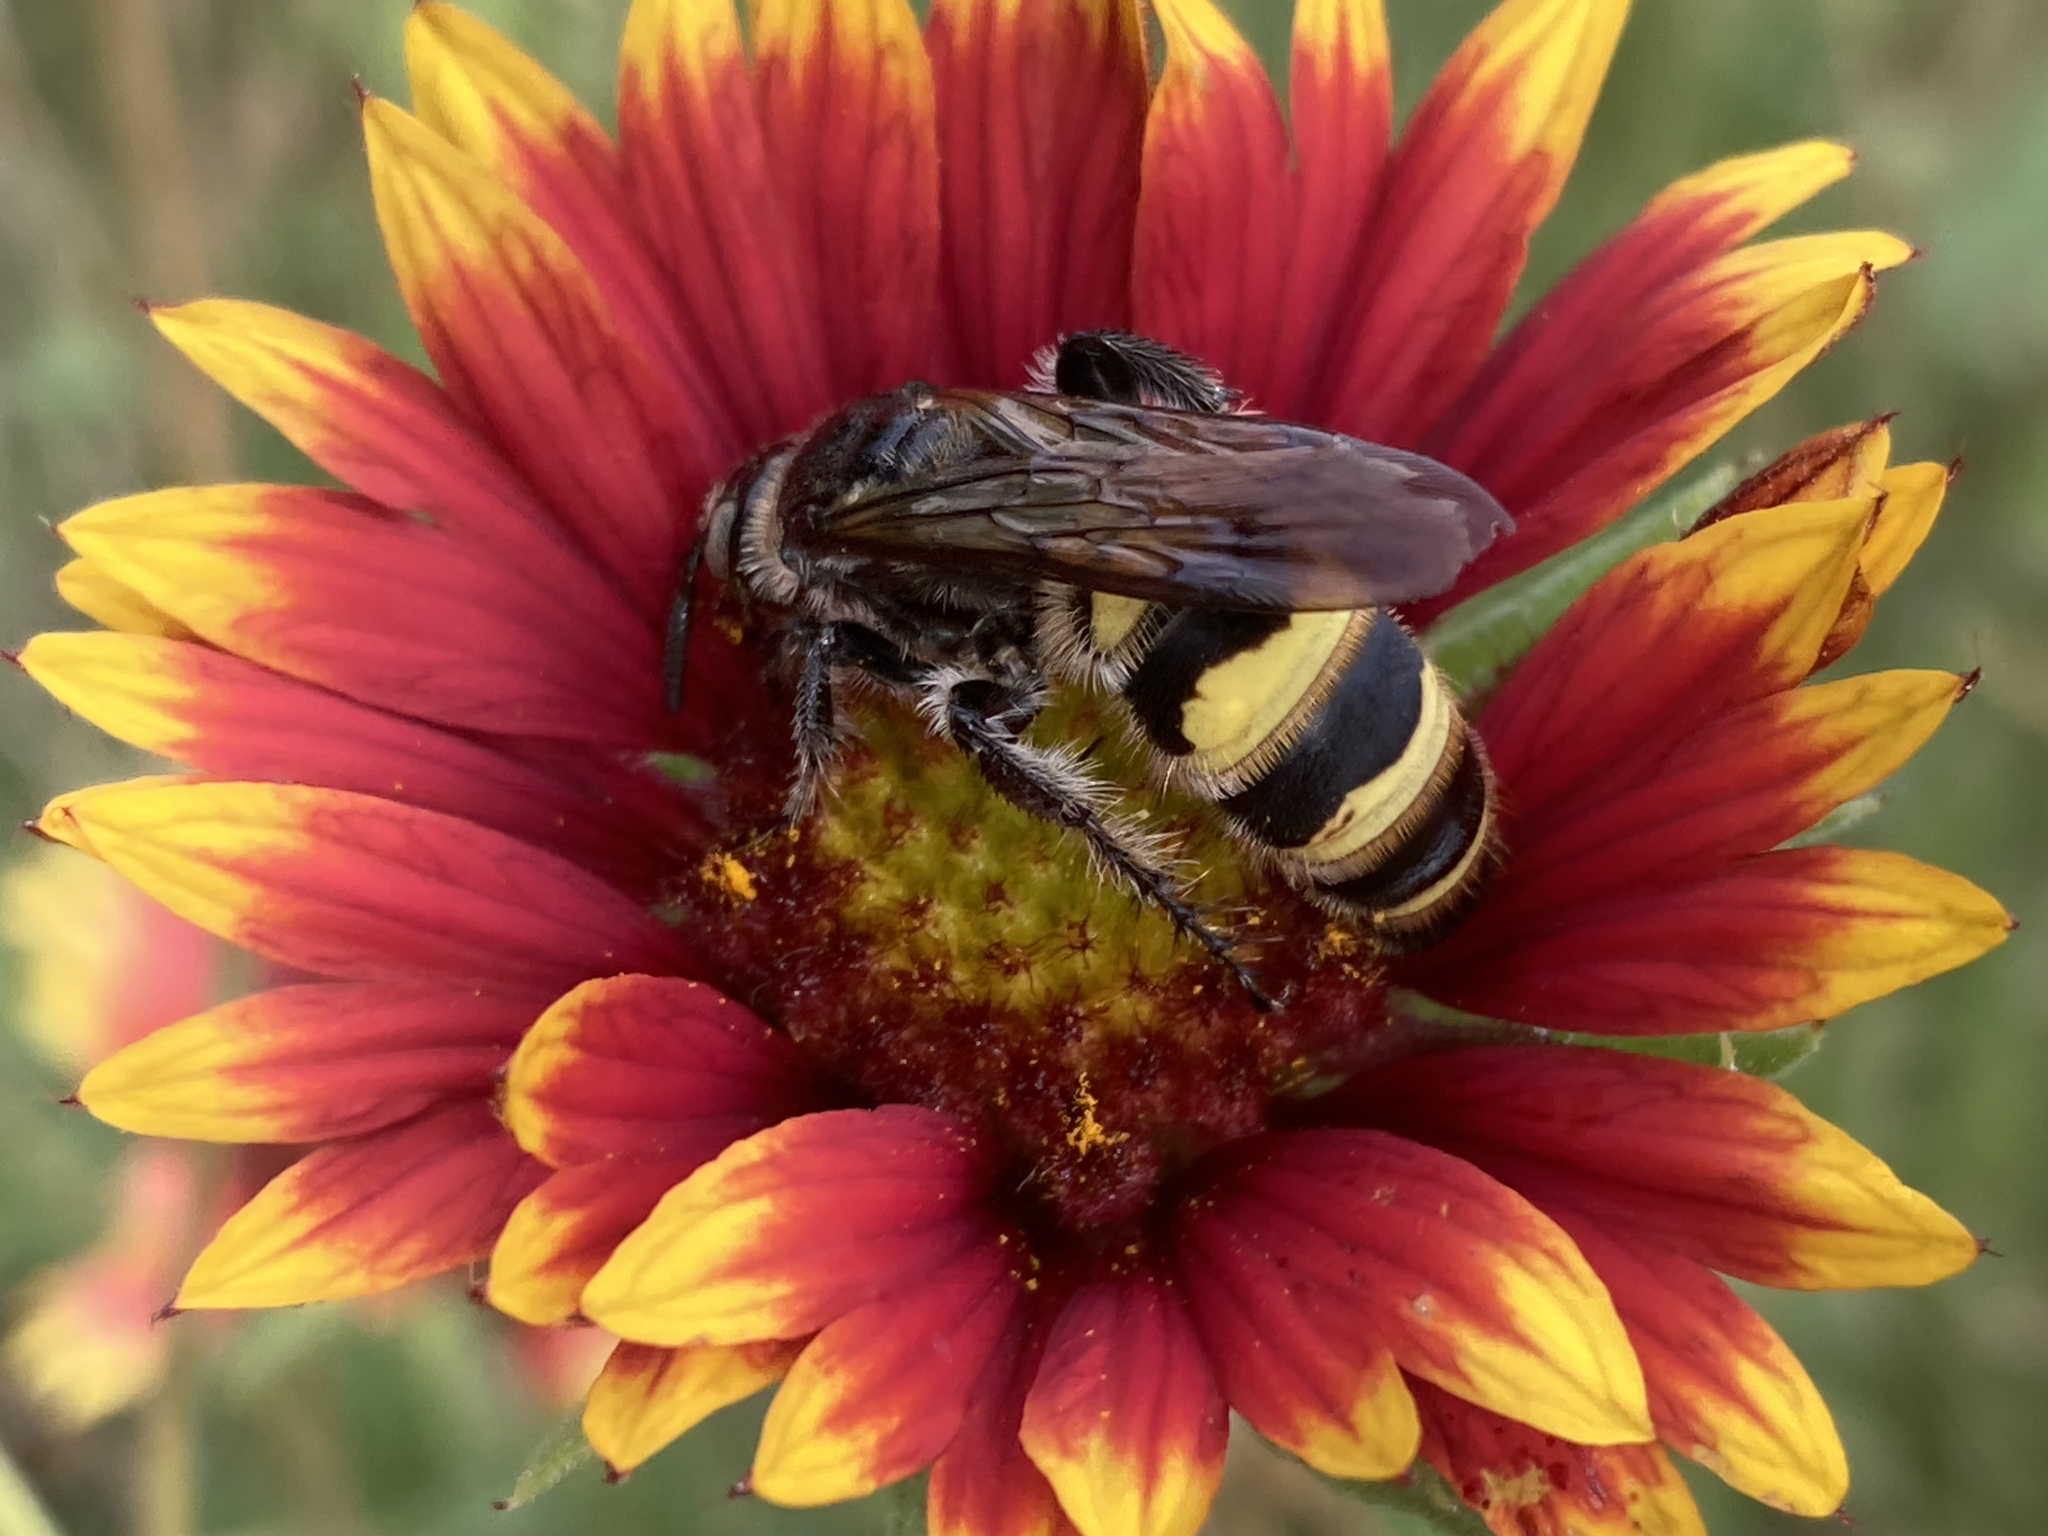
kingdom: Animalia
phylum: Arthropoda
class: Insecta
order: Hymenoptera
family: Scoliidae
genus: Dielis
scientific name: Dielis
